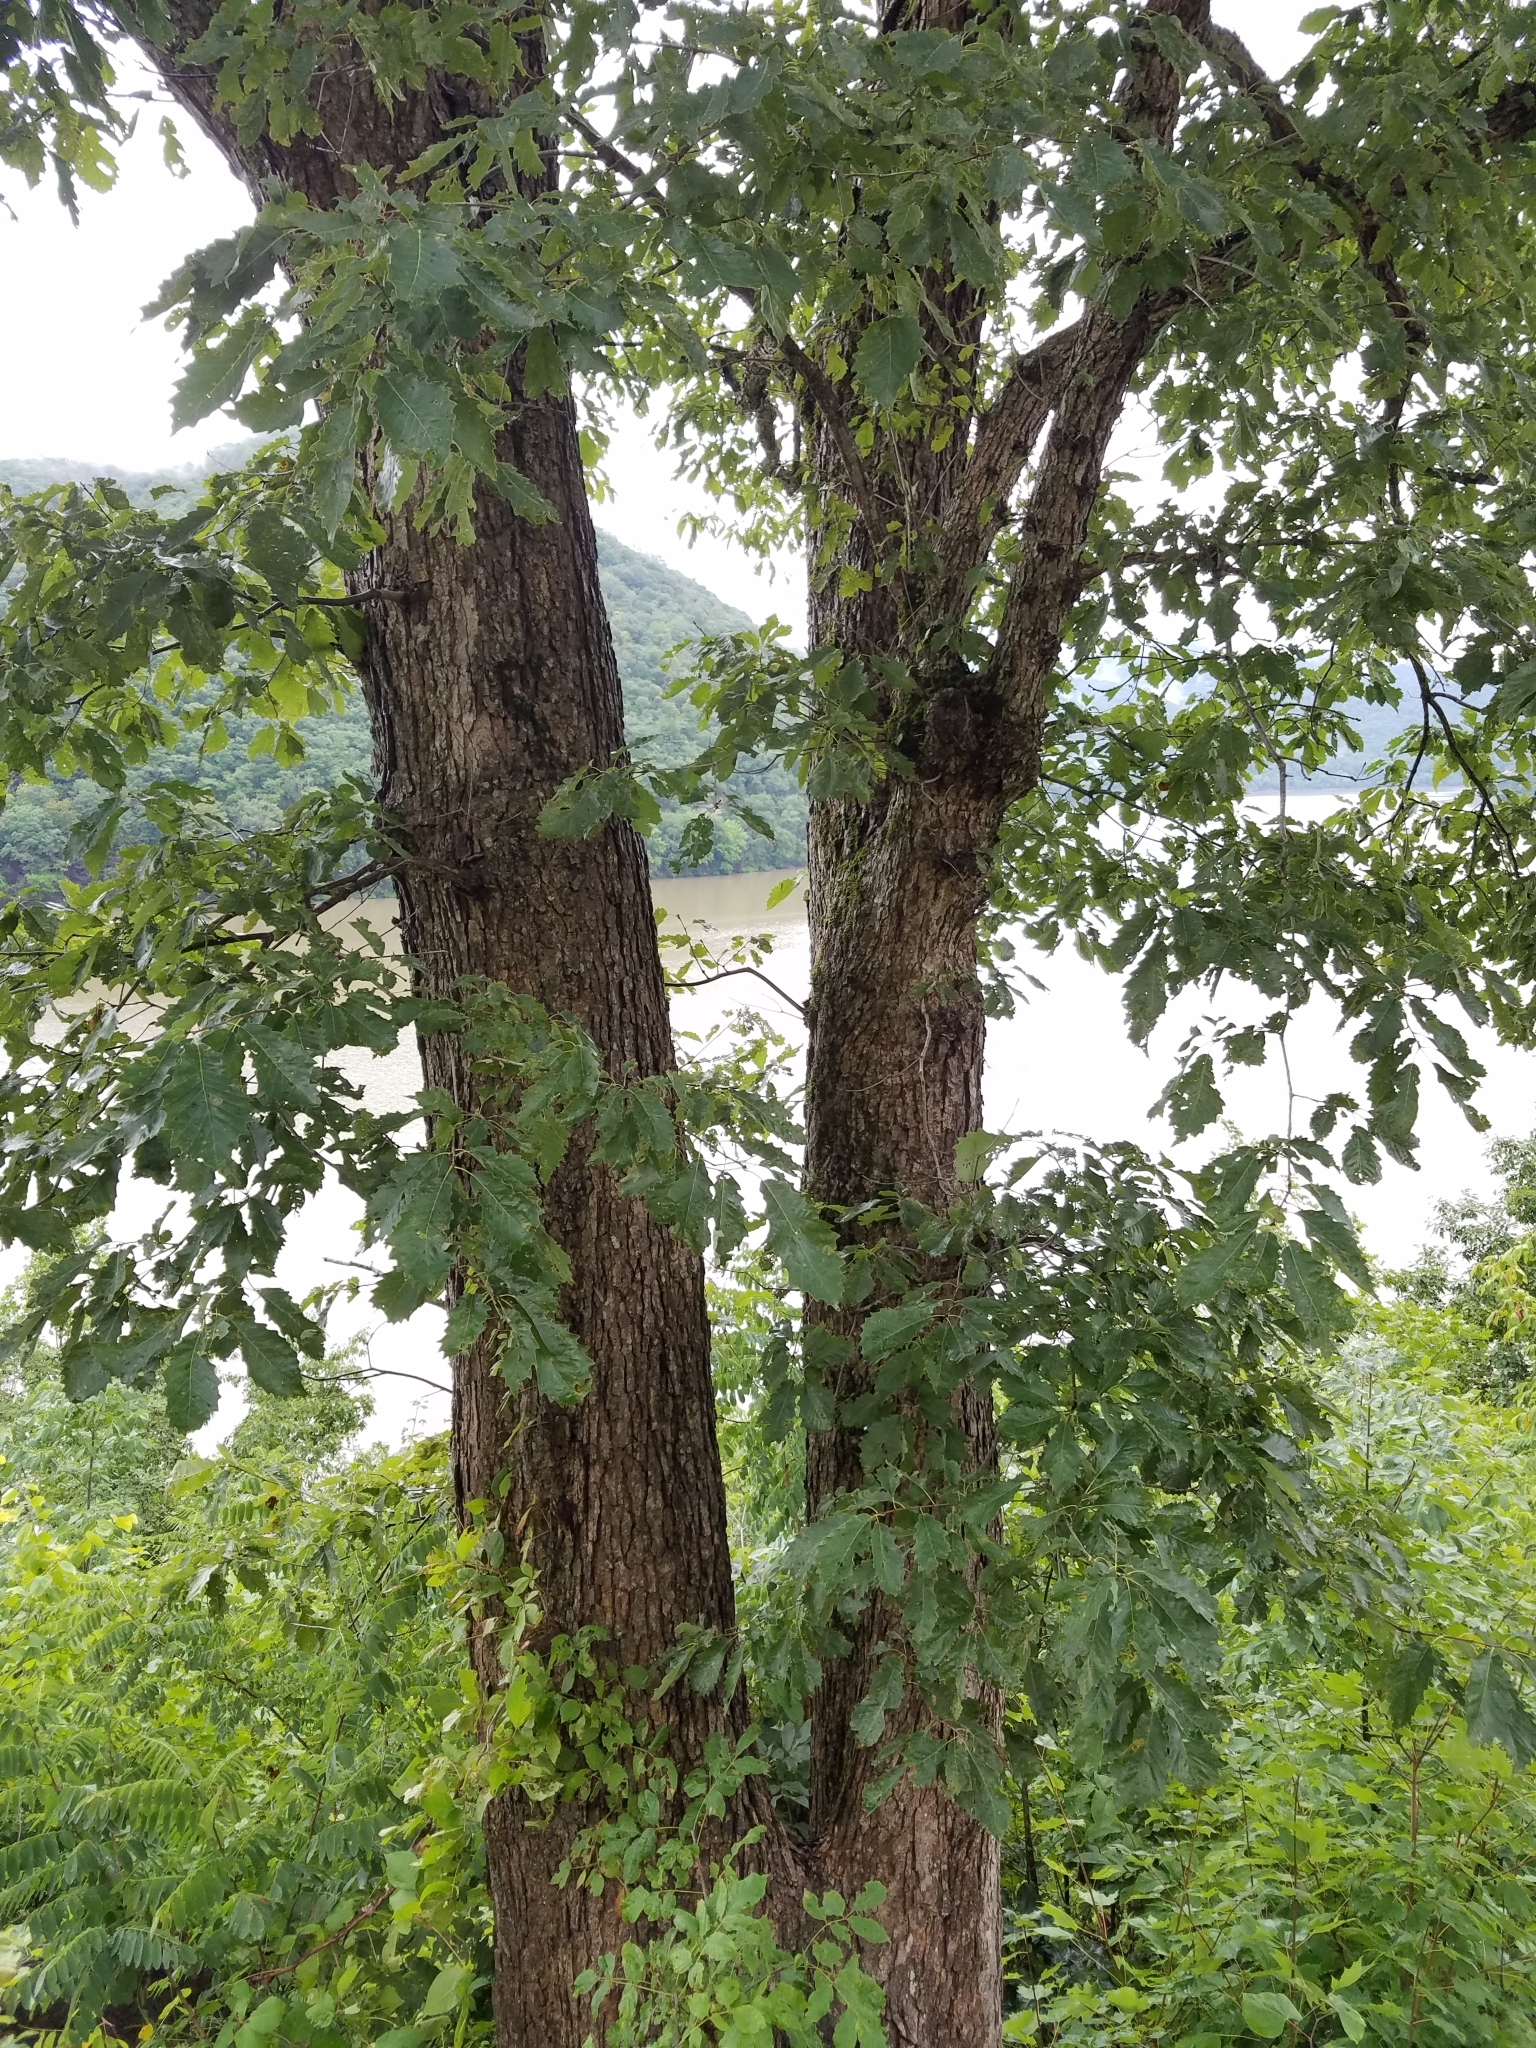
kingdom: Plantae
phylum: Tracheophyta
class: Magnoliopsida
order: Fagales
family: Fagaceae
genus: Quercus
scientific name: Quercus muehlenbergii
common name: Chinkapin oak
